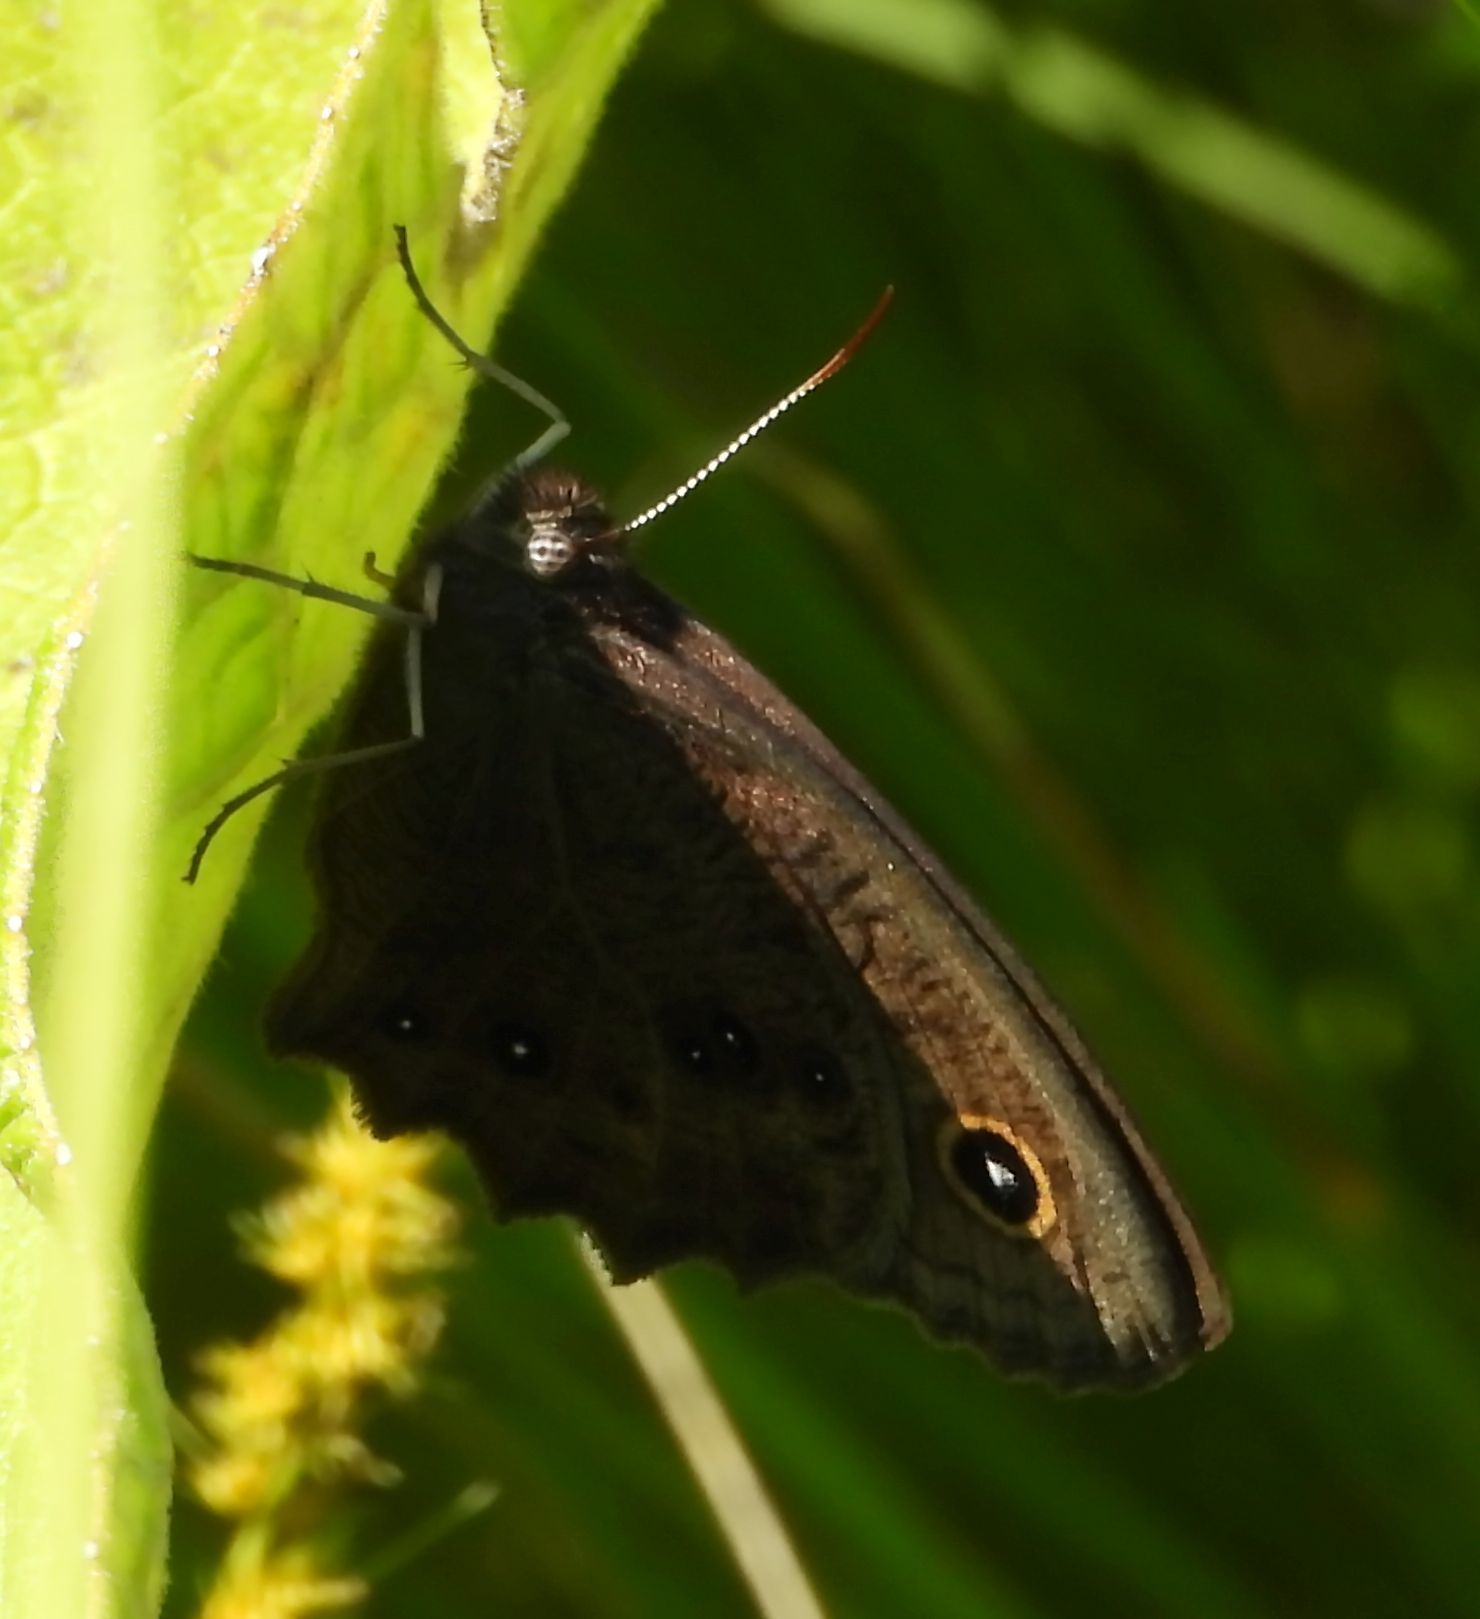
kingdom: Animalia
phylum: Arthropoda
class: Insecta
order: Lepidoptera
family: Nymphalidae
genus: Cercyonis
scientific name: Cercyonis pegala
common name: Common wood-nymph
